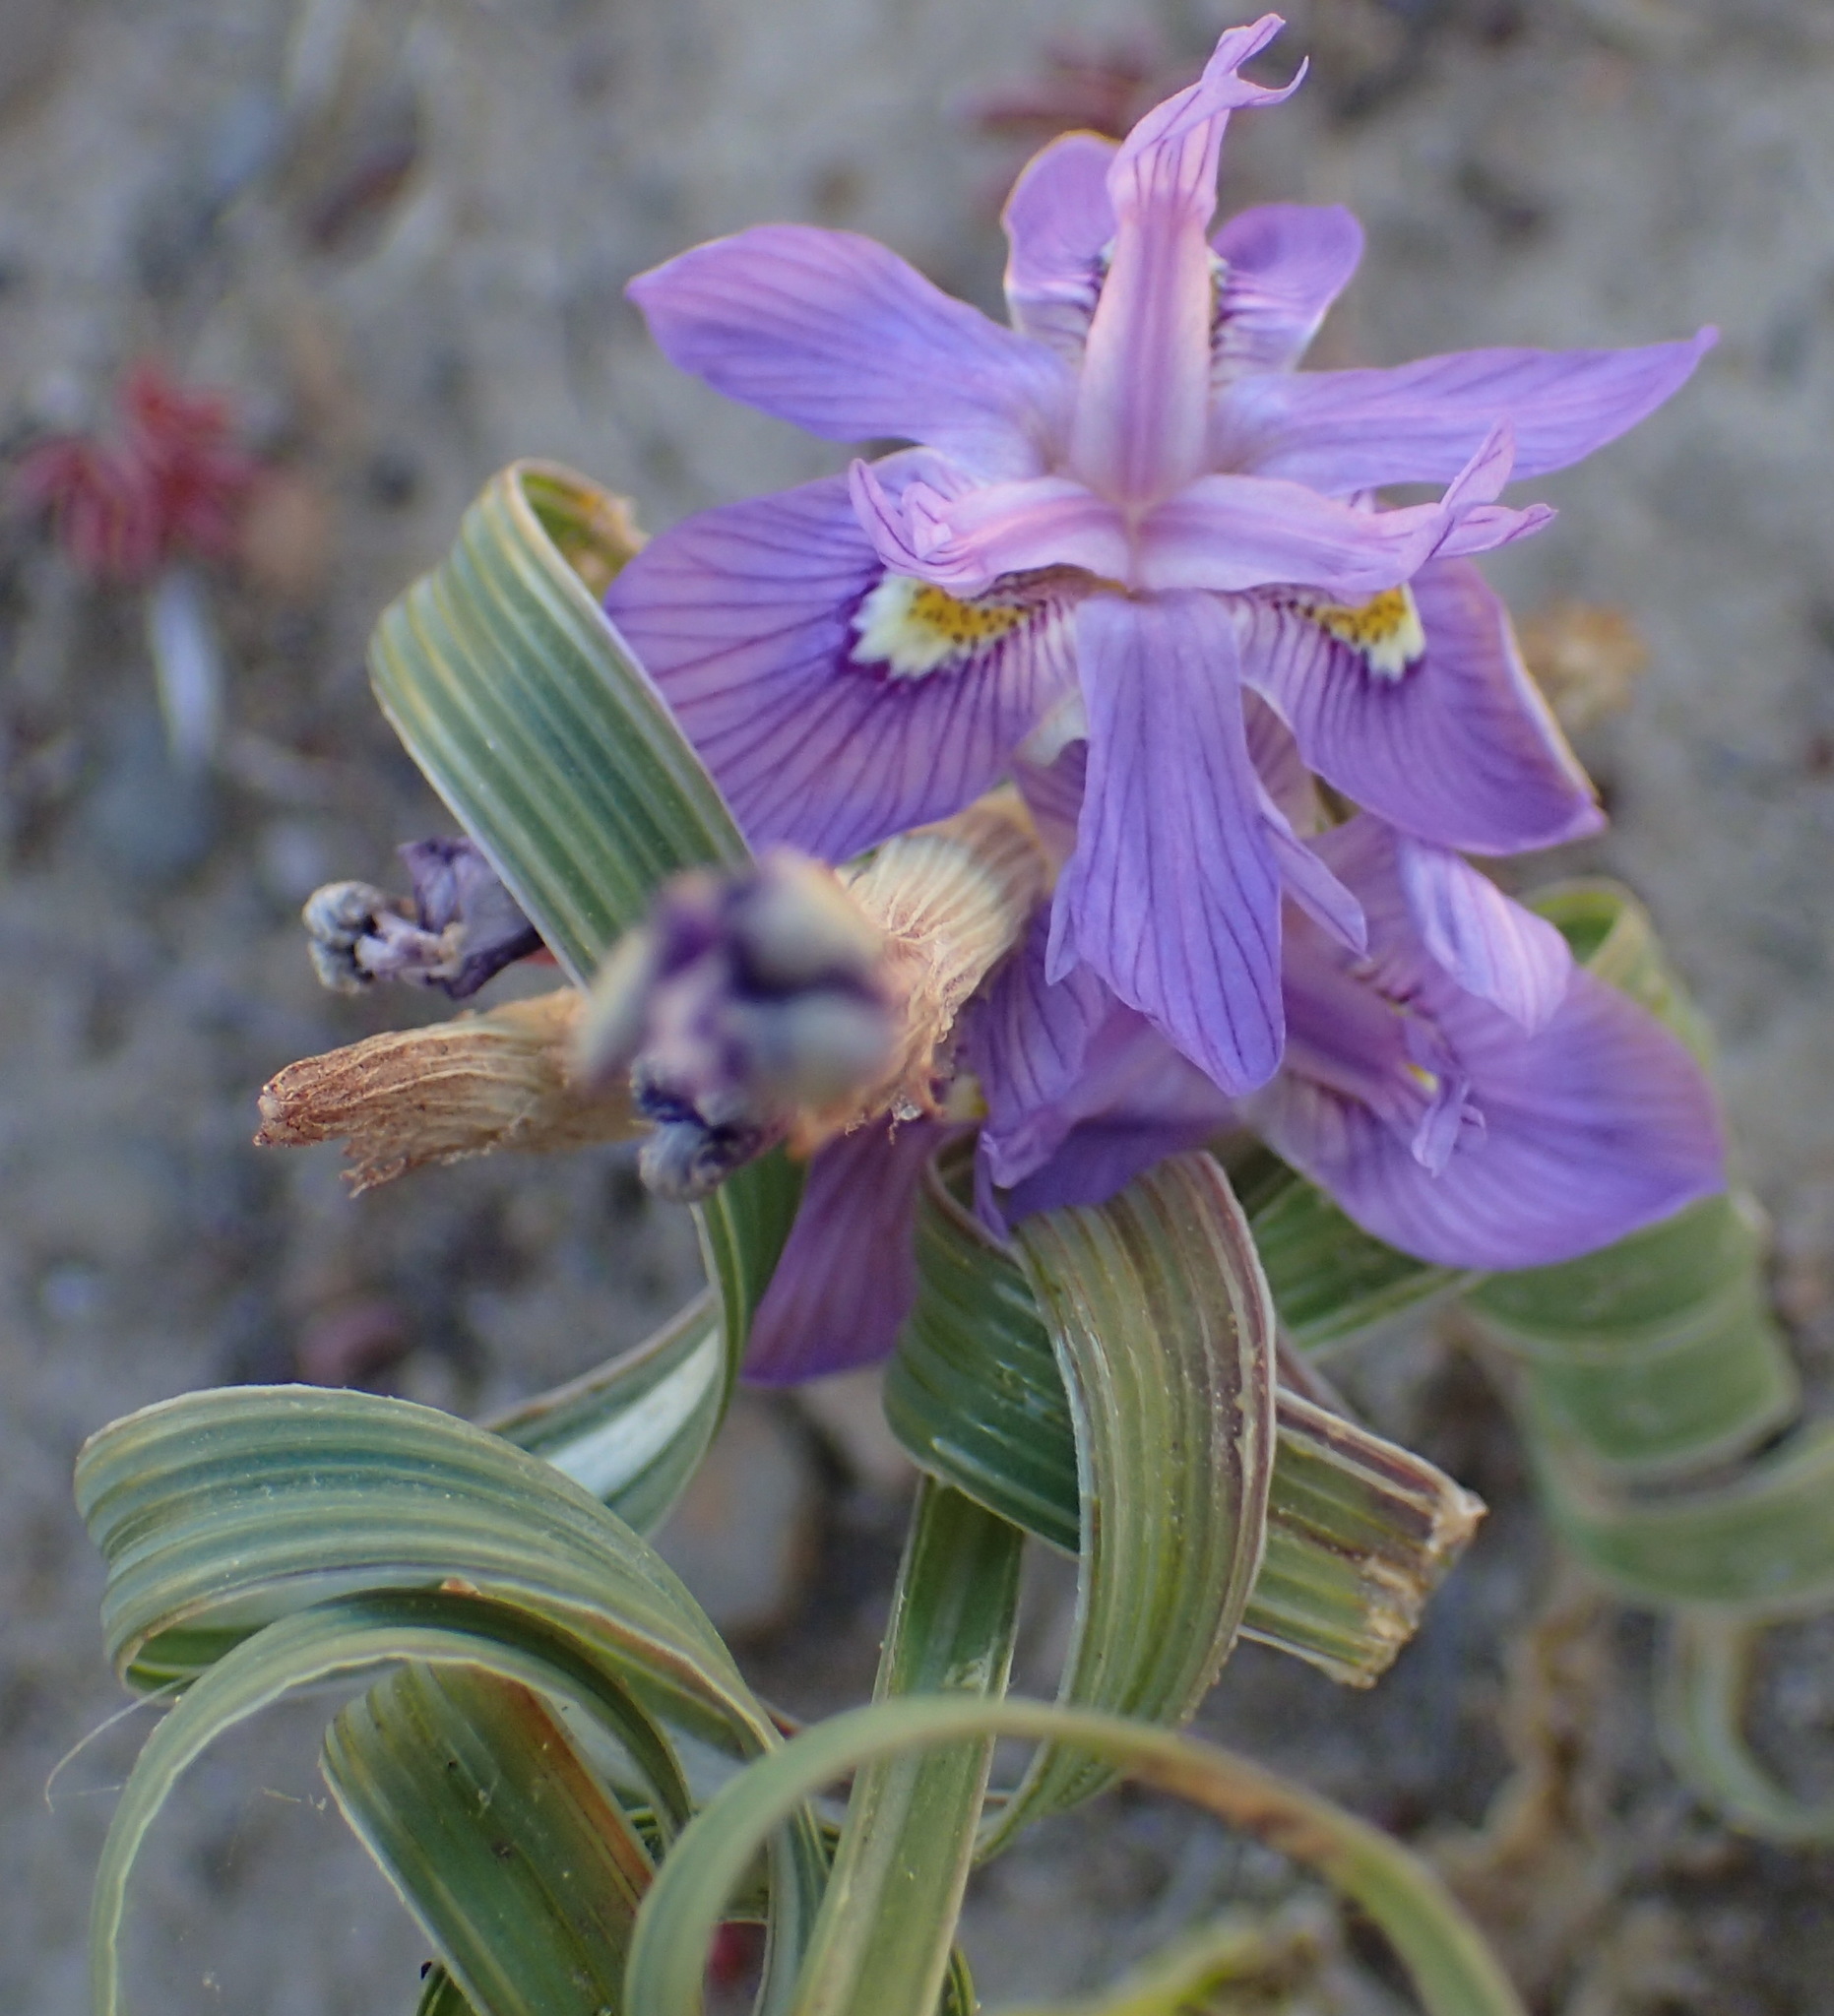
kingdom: Plantae
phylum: Tracheophyta
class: Liliopsida
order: Asparagales
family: Iridaceae
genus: Moraea
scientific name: Moraea pritzeliana
